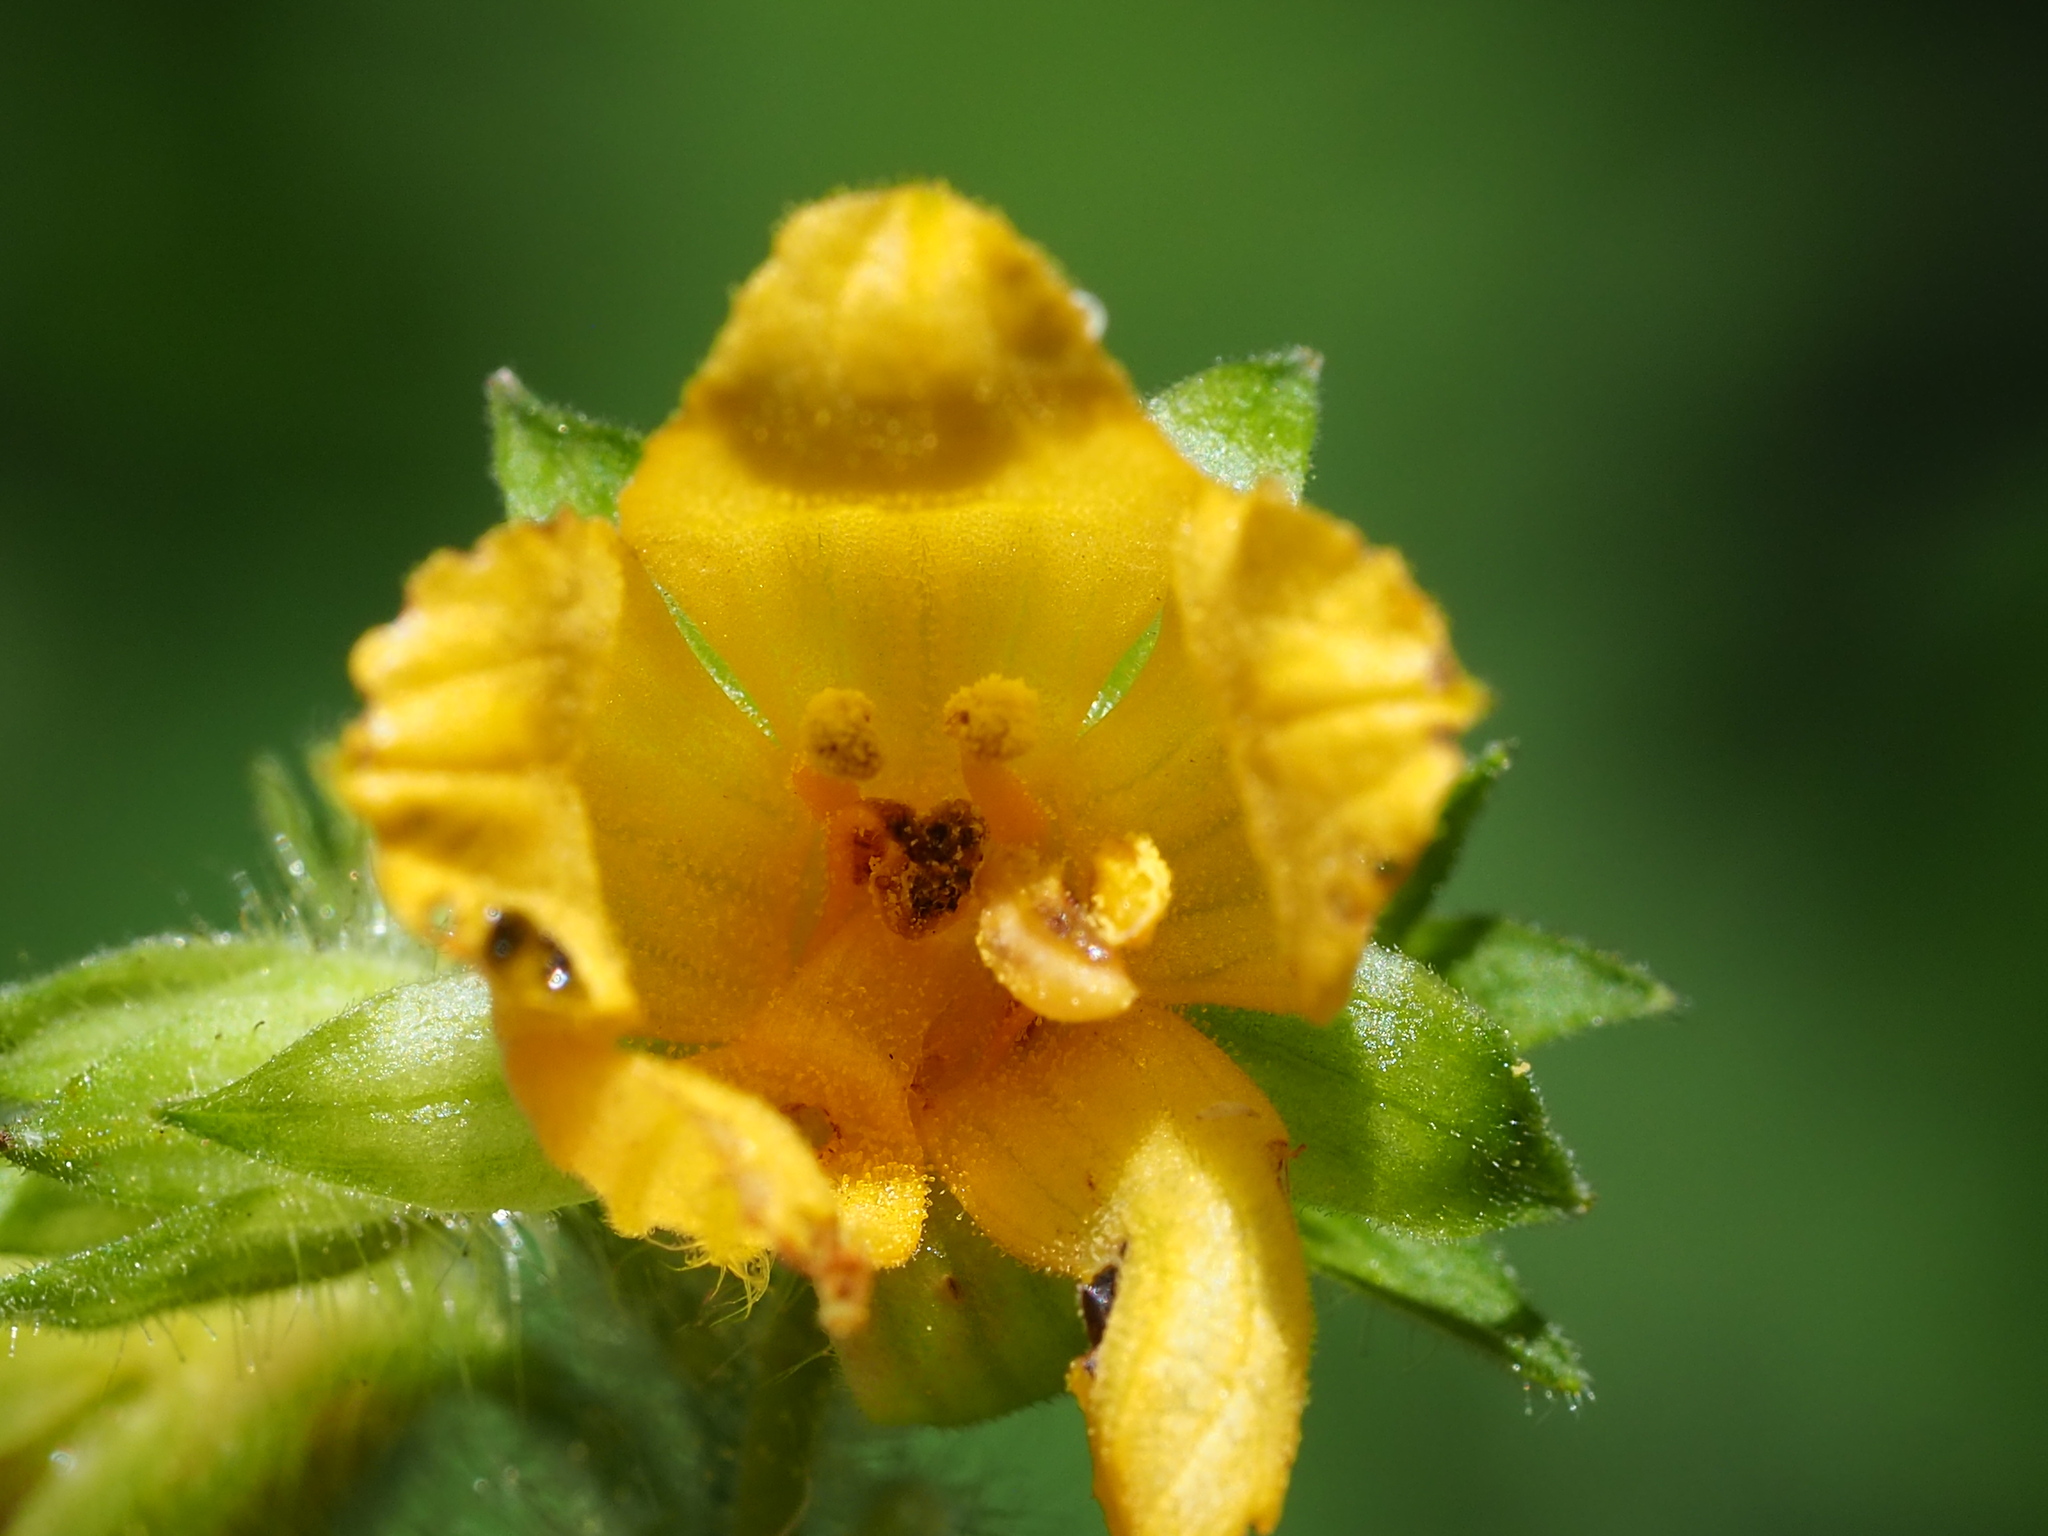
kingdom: Plantae
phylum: Tracheophyta
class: Magnoliopsida
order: Cucurbitales
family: Cucurbitaceae
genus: Thladiantha
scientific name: Thladiantha nudiflora
